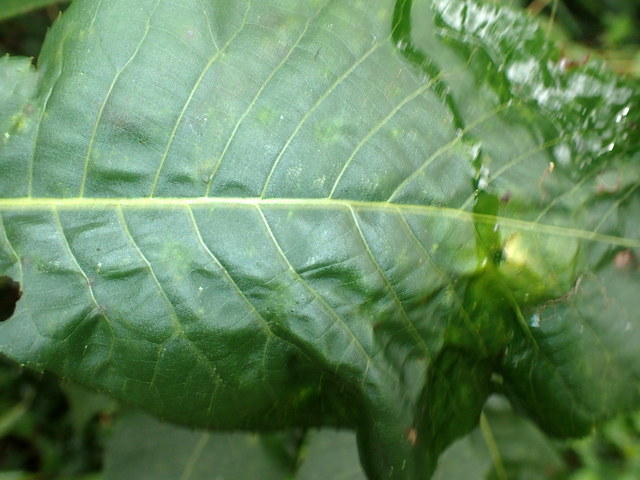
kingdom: Animalia
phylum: Arthropoda
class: Insecta
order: Diptera
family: Cecidomyiidae
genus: Caryomyia
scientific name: Caryomyia tubicola
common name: Hickory bullet gall midge
